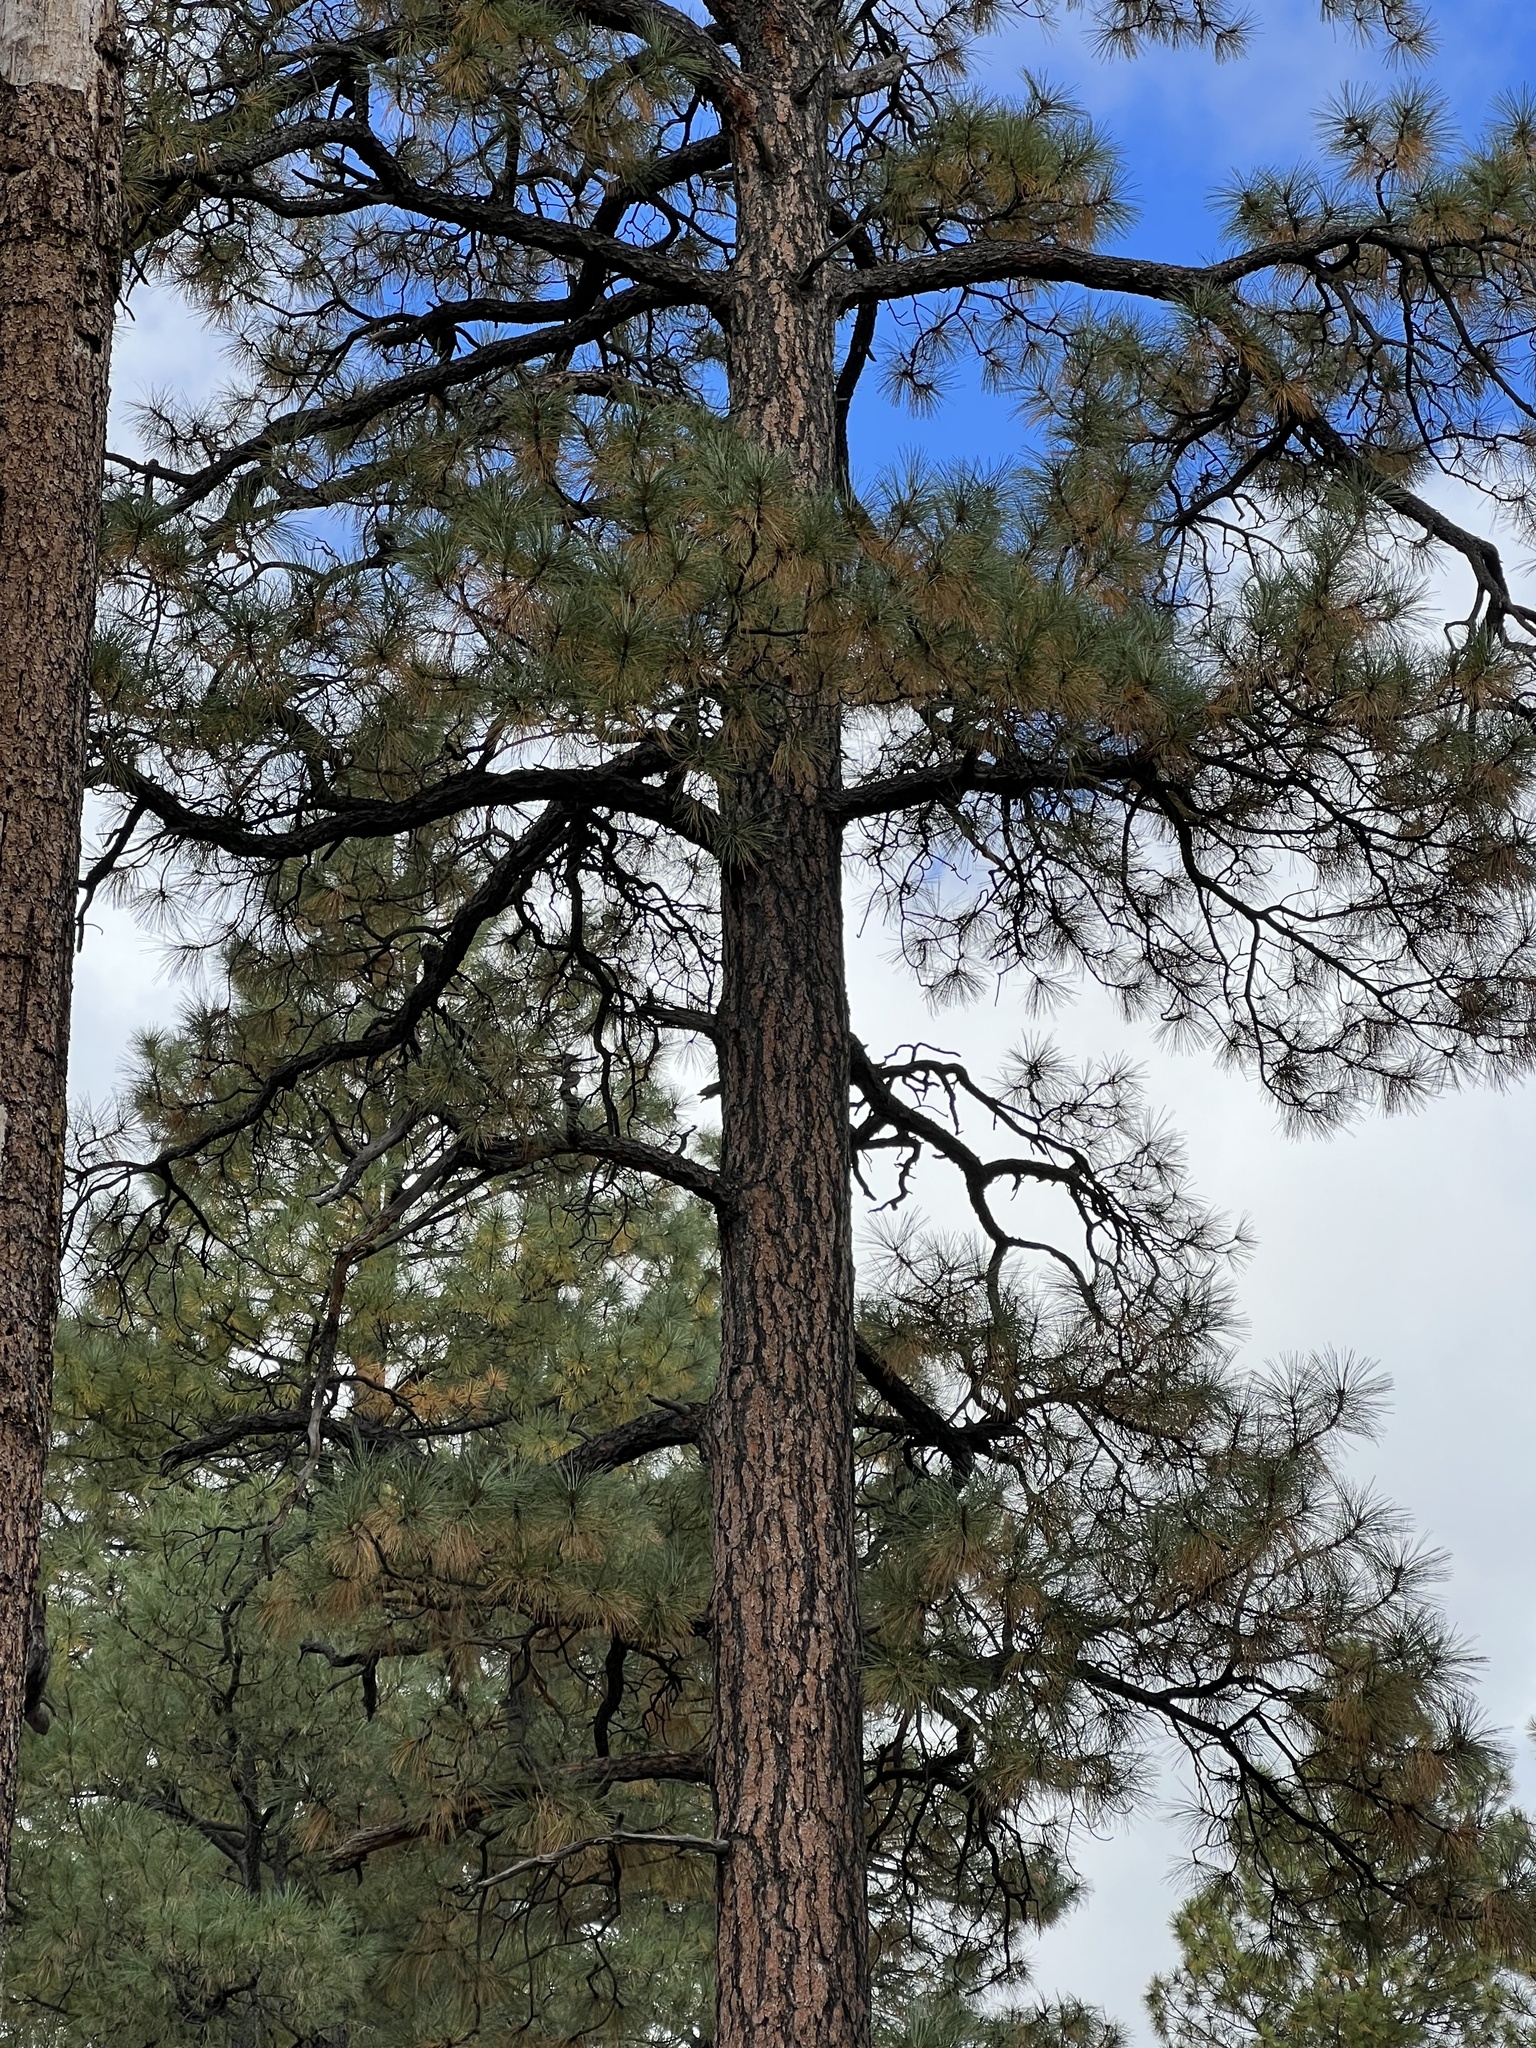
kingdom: Plantae
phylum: Tracheophyta
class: Pinopsida
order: Pinales
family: Pinaceae
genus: Pinus
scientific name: Pinus ponderosa
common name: Western yellow-pine
